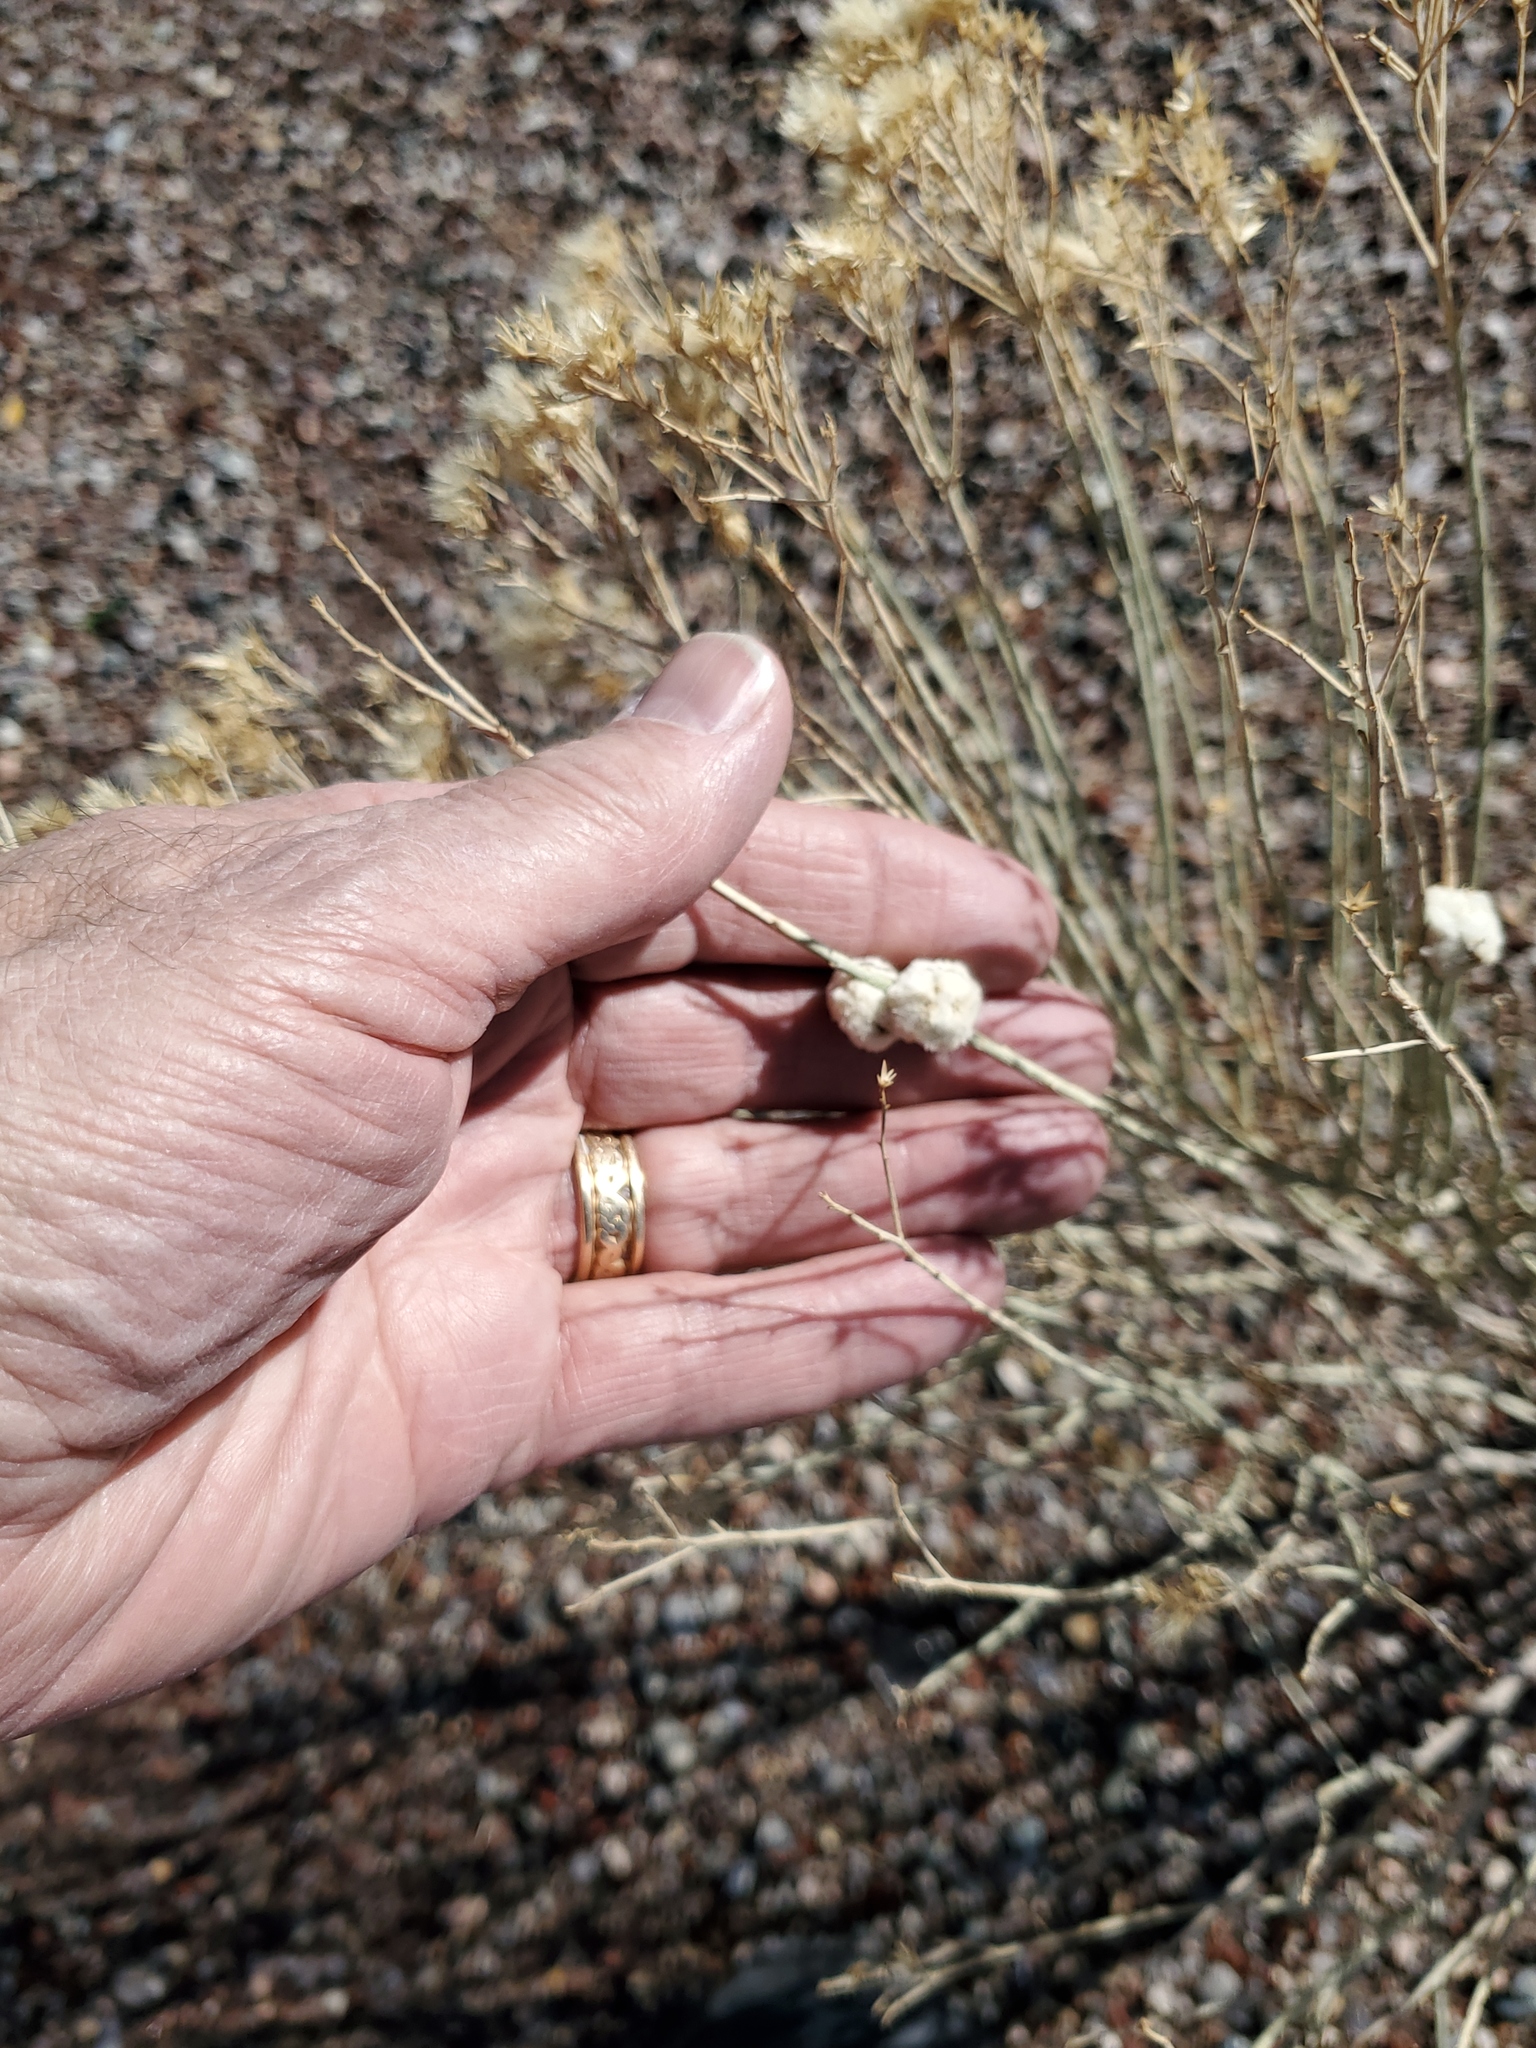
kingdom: Animalia
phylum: Arthropoda
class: Insecta
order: Diptera
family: Tephritidae
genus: Aciurina
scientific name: Aciurina bigeloviae
